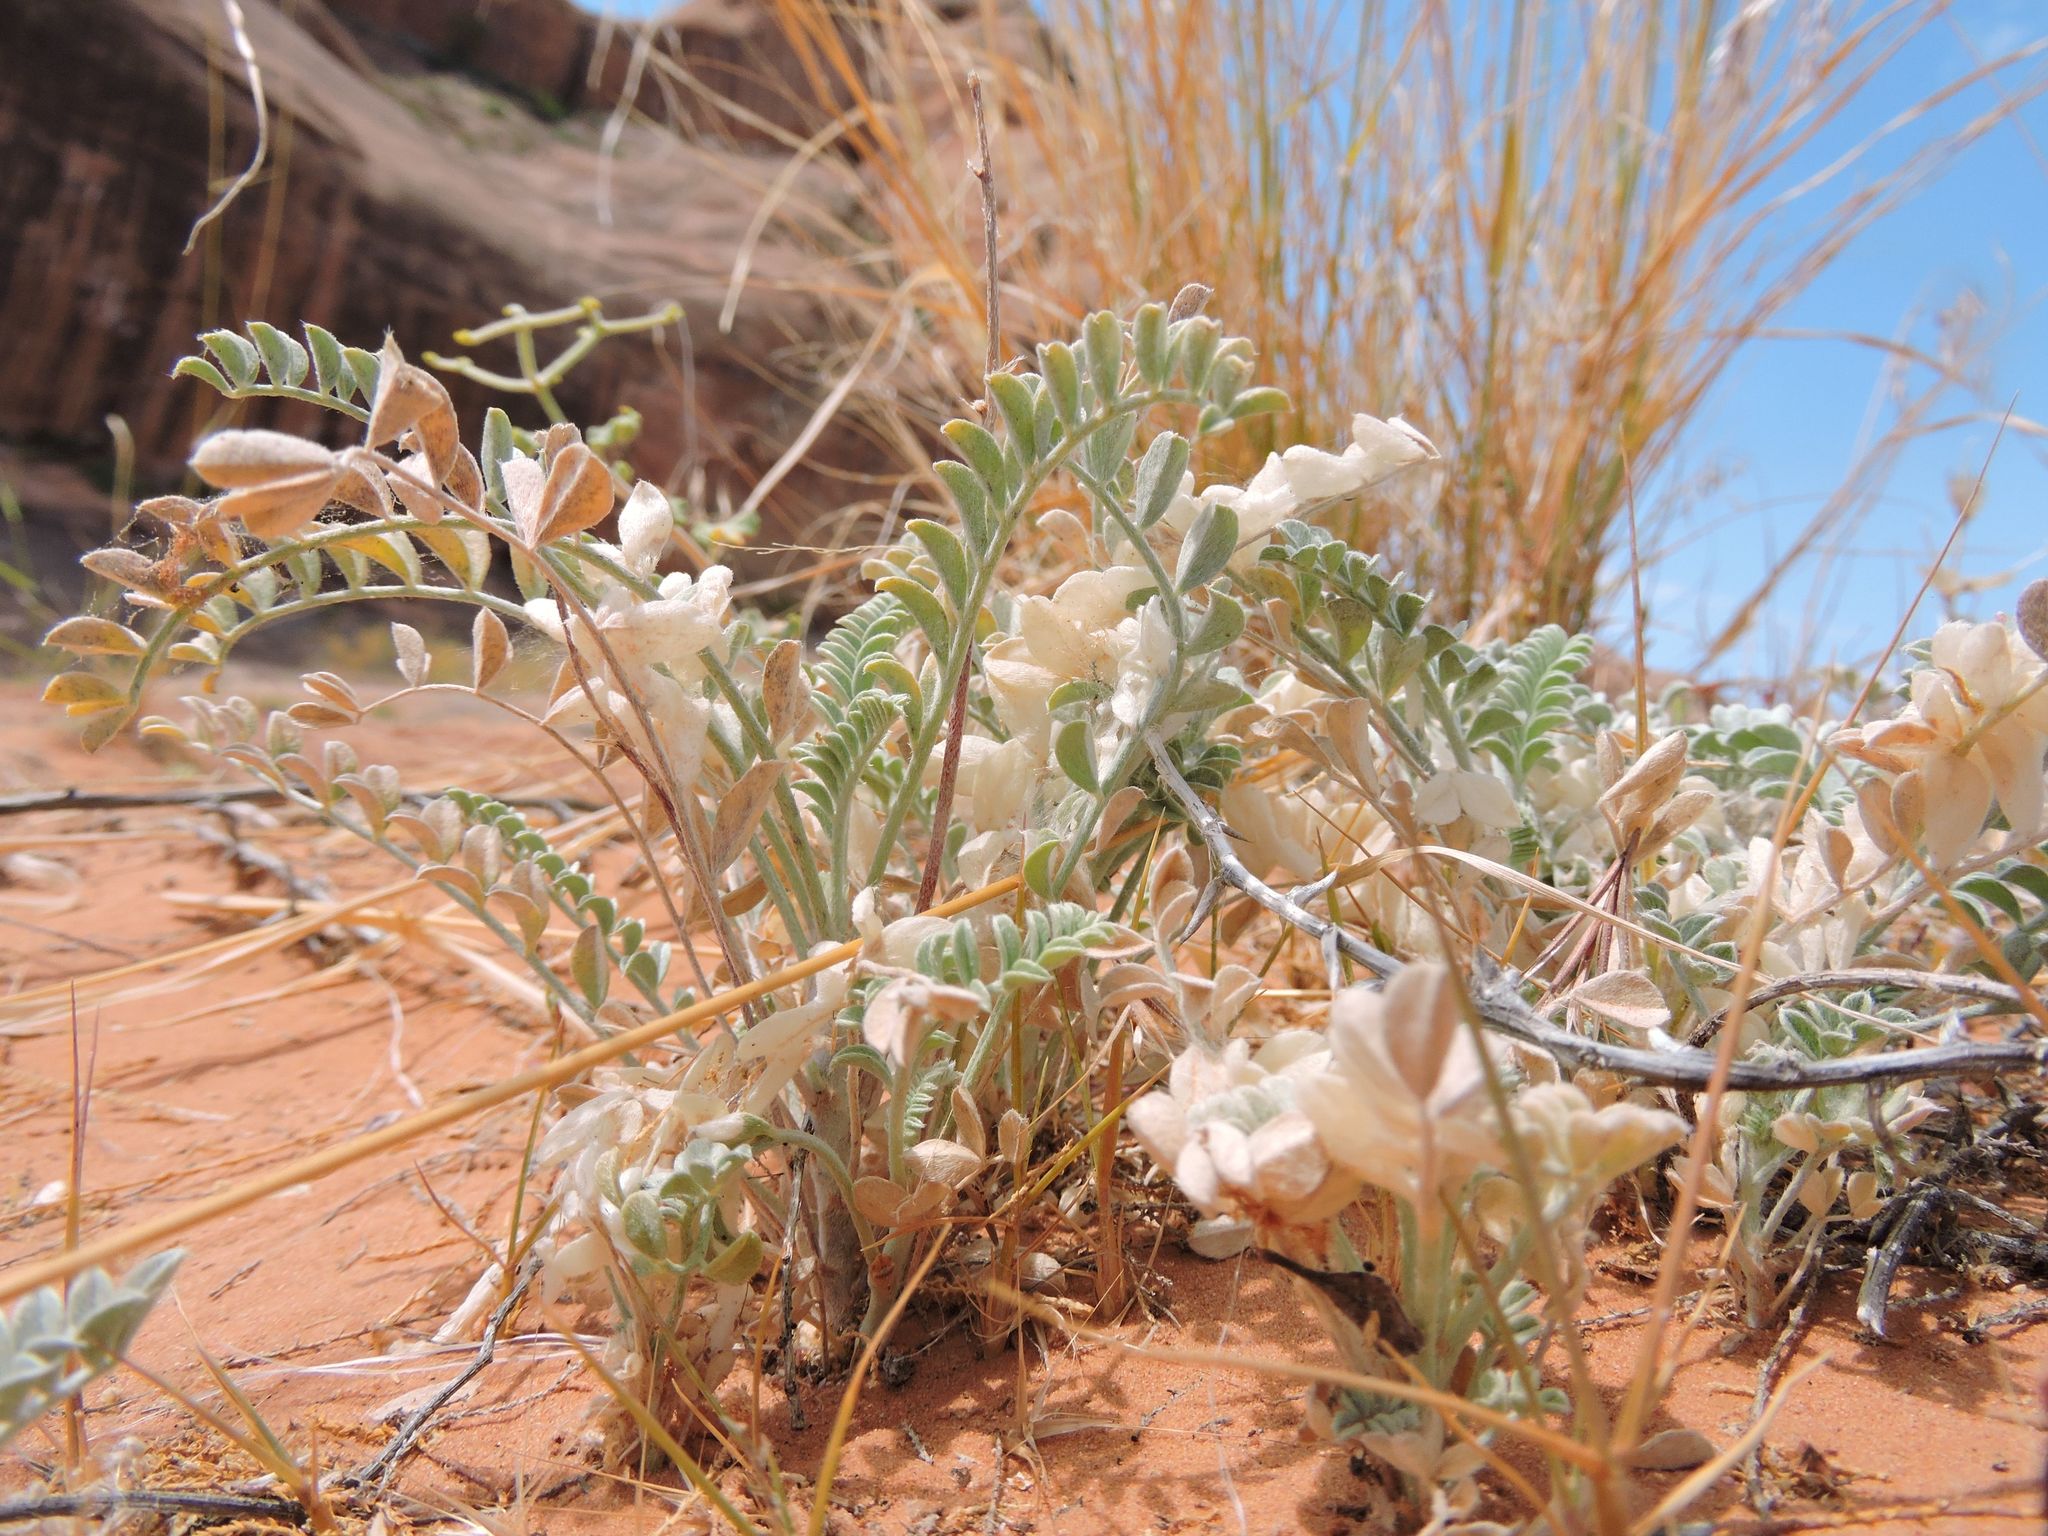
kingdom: Plantae
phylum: Tracheophyta
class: Magnoliopsida
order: Fabales
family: Fabaceae
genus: Astragalus
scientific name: Astragalus mollissimus
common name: Woolly locoweed
